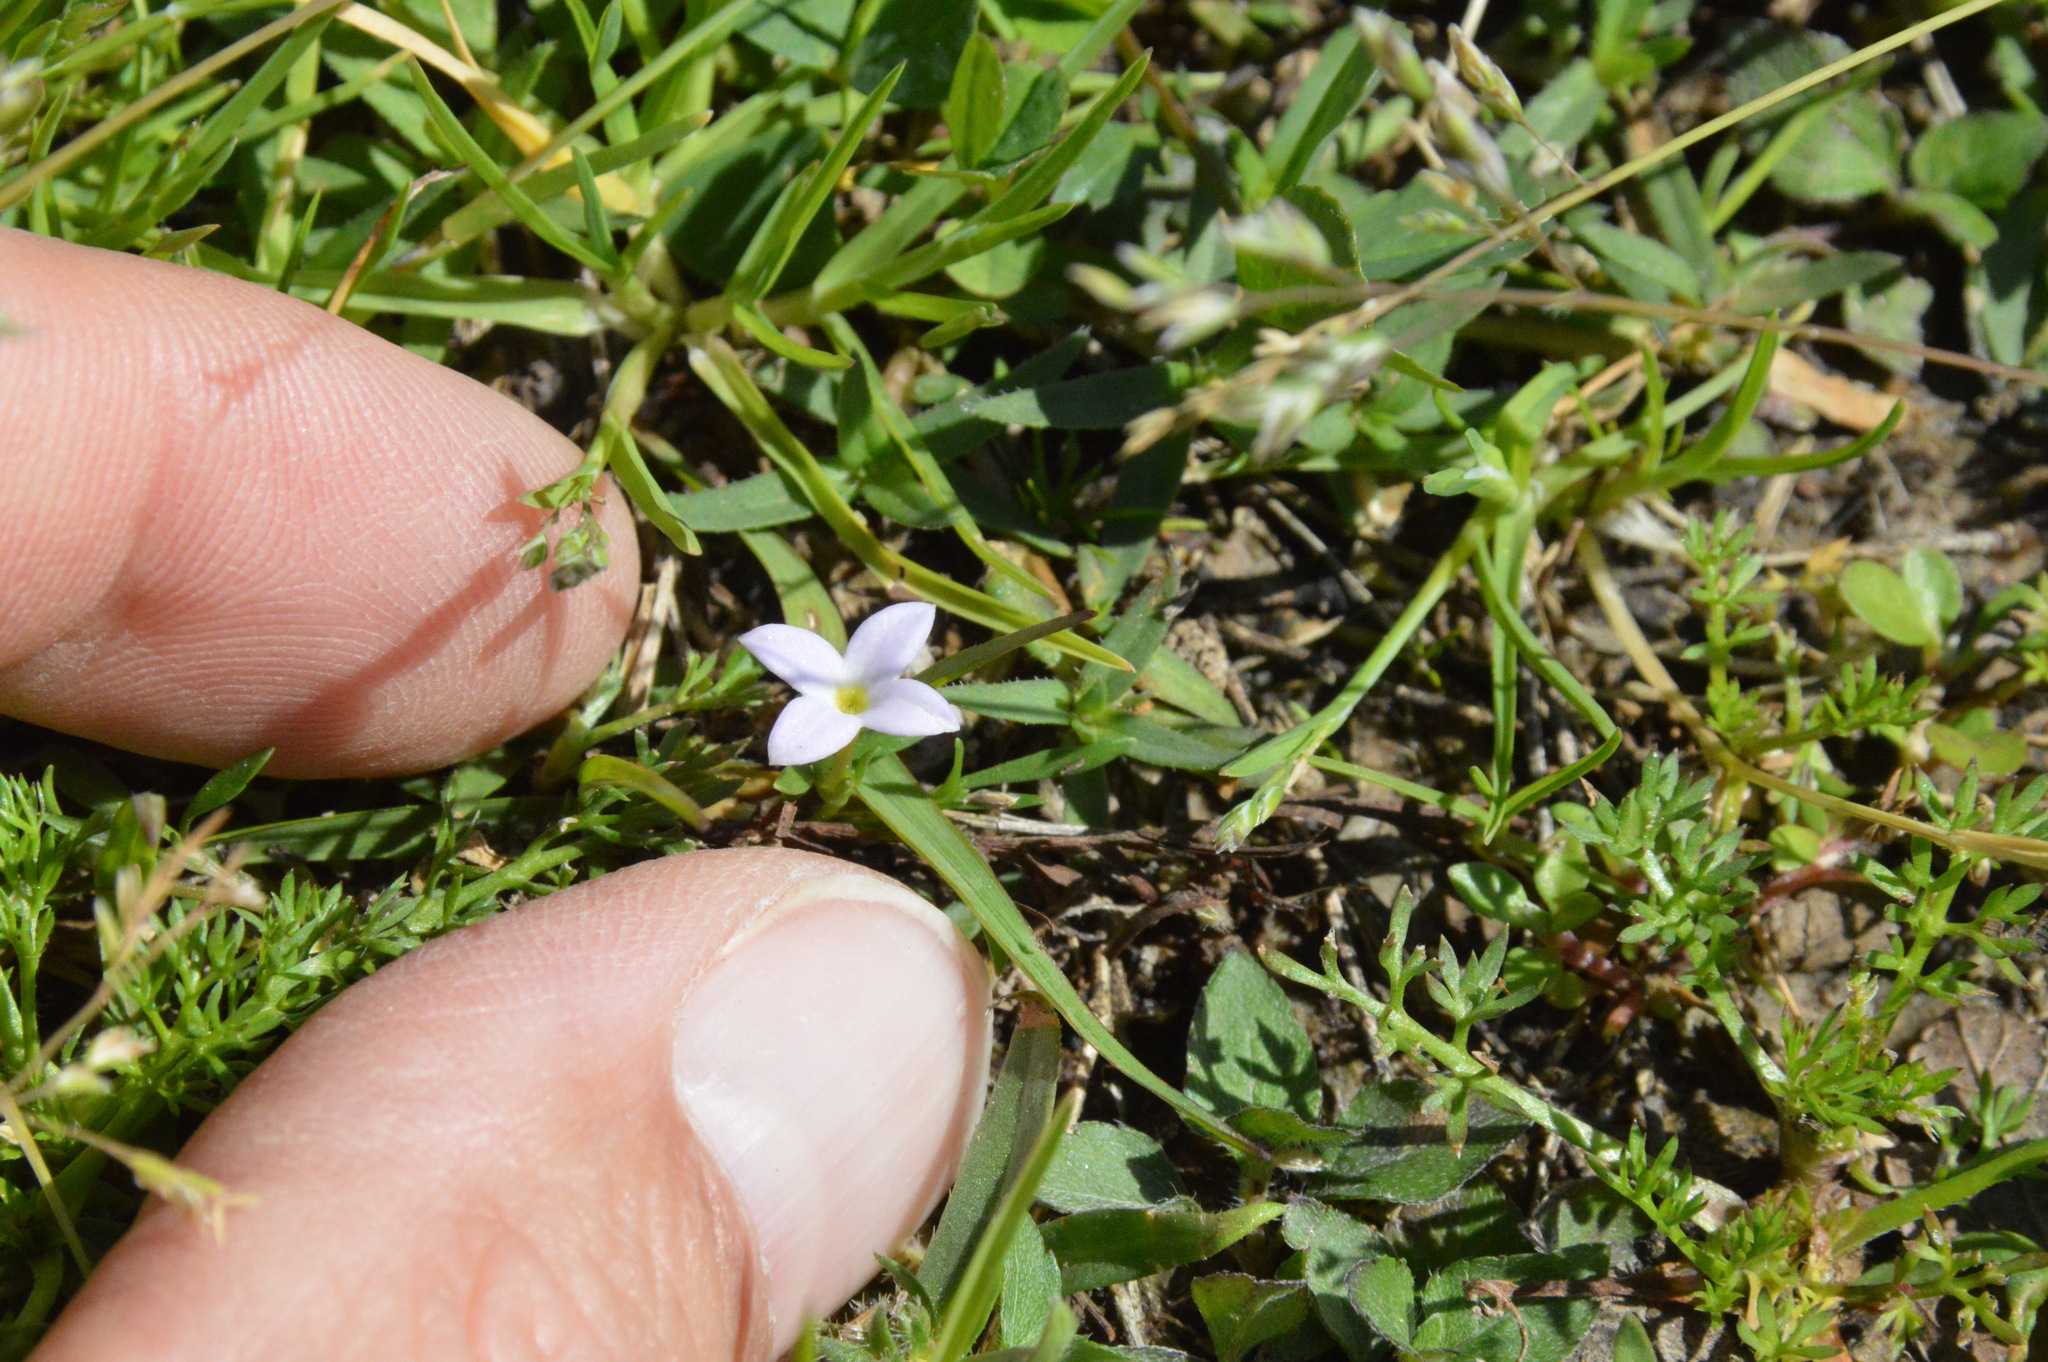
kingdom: Plantae
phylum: Tracheophyta
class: Magnoliopsida
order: Gentianales
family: Rubiaceae
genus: Houstonia
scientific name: Houstonia rosea
